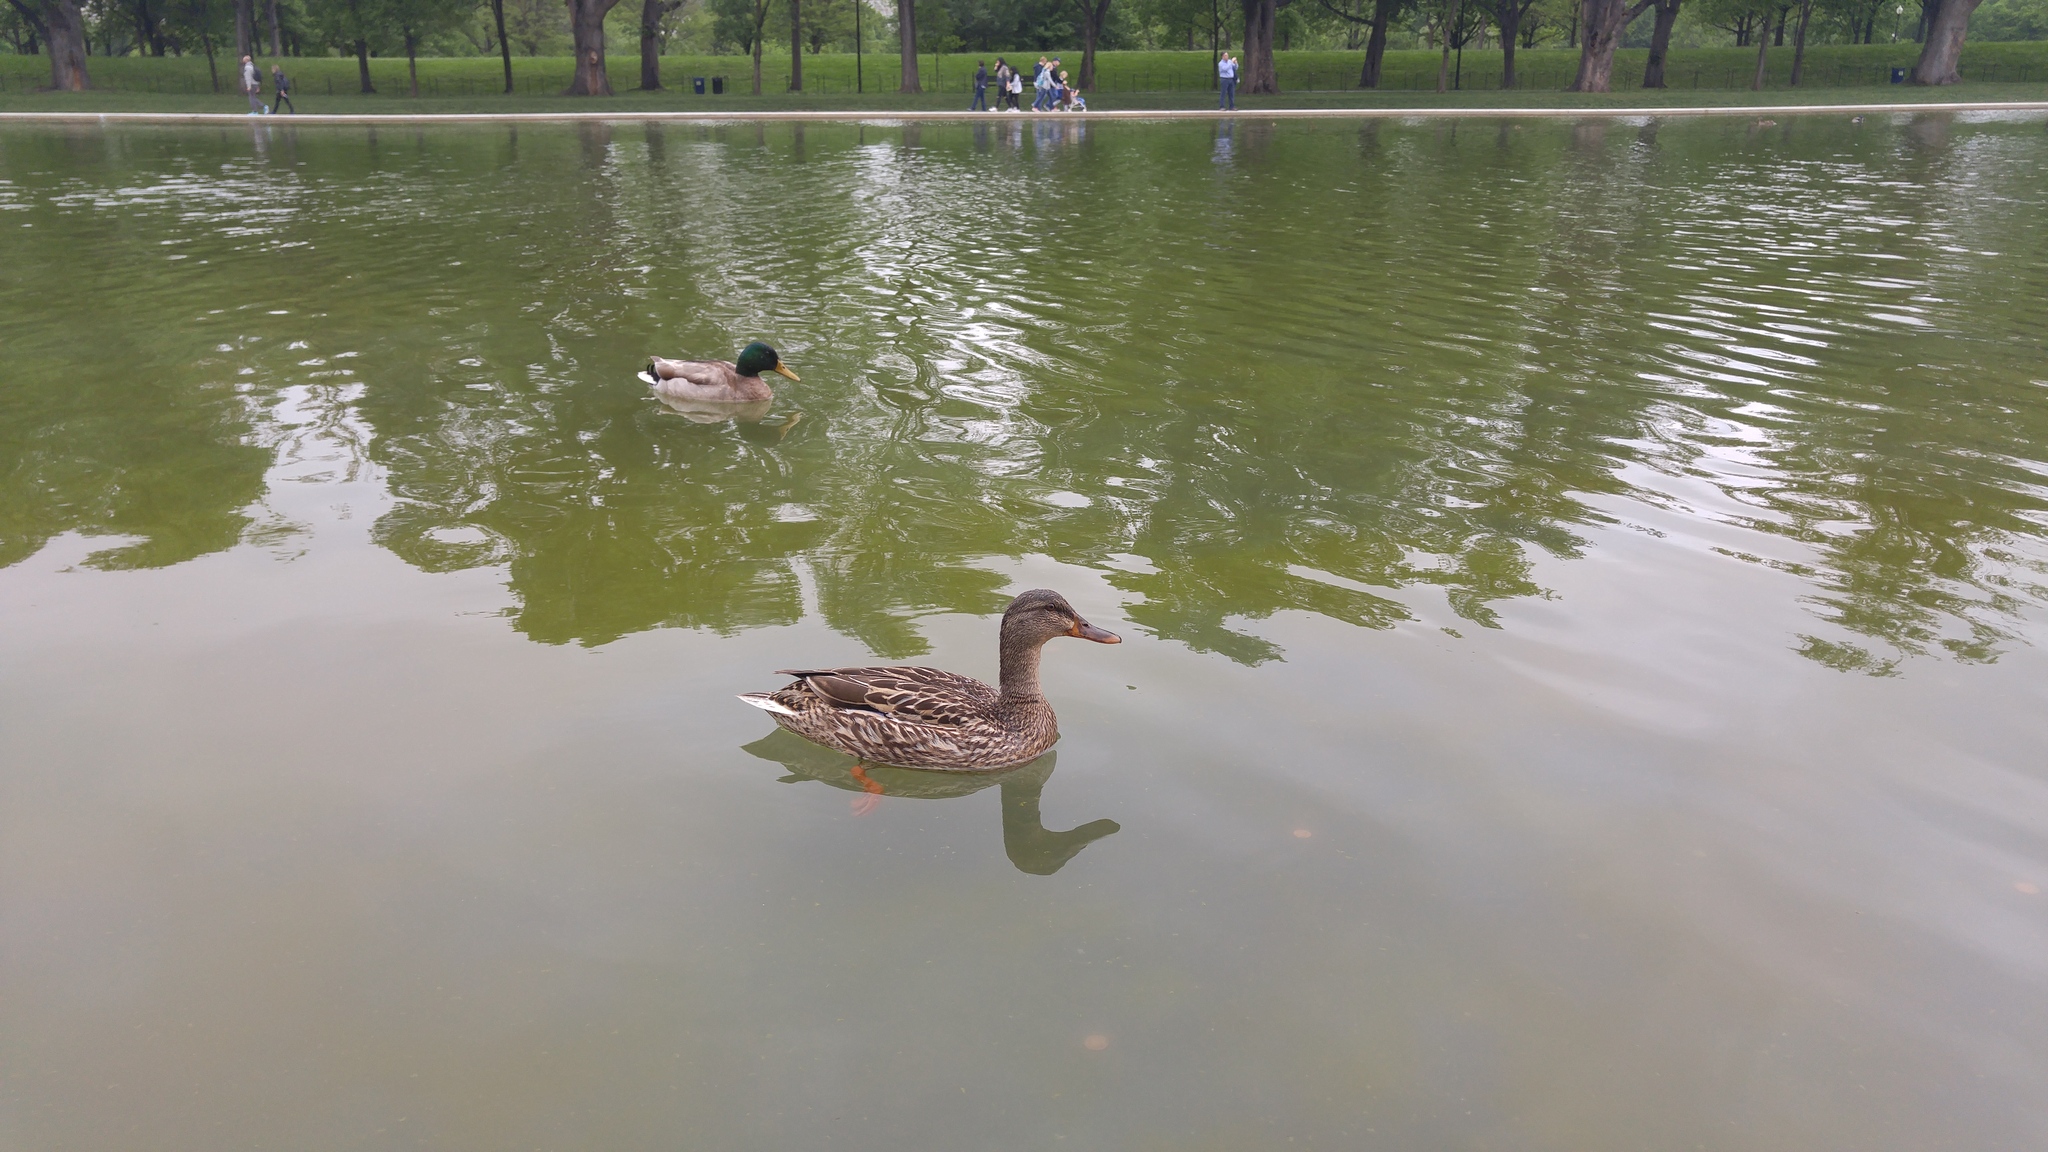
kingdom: Animalia
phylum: Chordata
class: Aves
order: Anseriformes
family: Anatidae
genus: Anas
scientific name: Anas platyrhynchos
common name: Mallard
